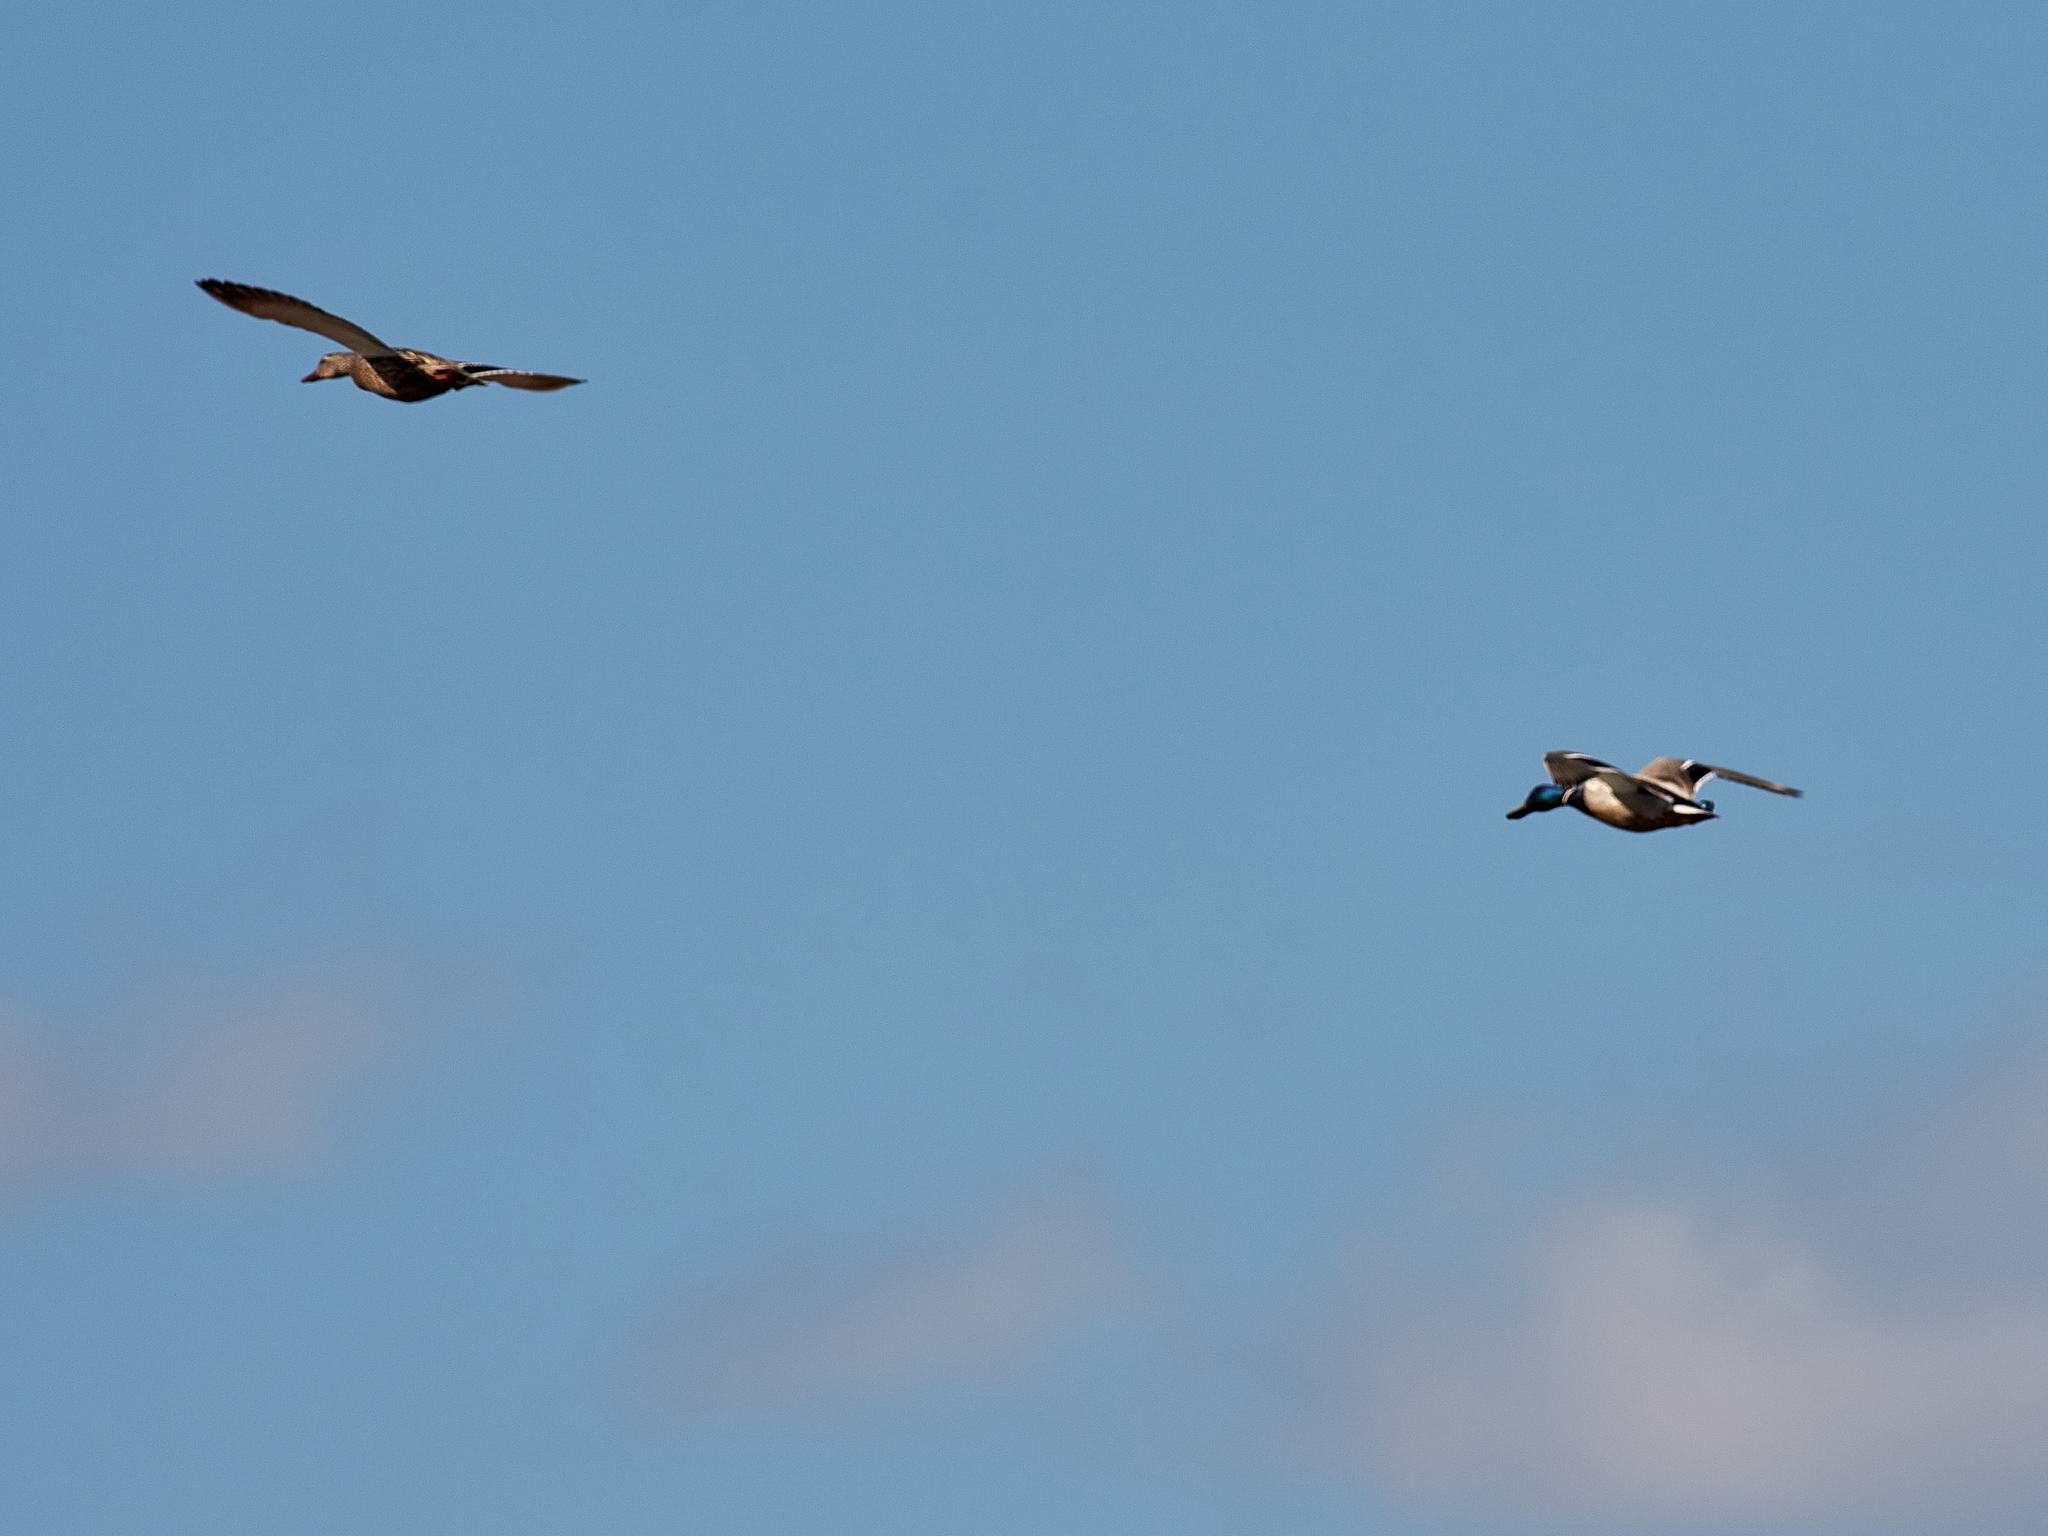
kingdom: Animalia
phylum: Chordata
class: Aves
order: Anseriformes
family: Anatidae
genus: Anas
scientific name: Anas platyrhynchos
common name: Mallard
